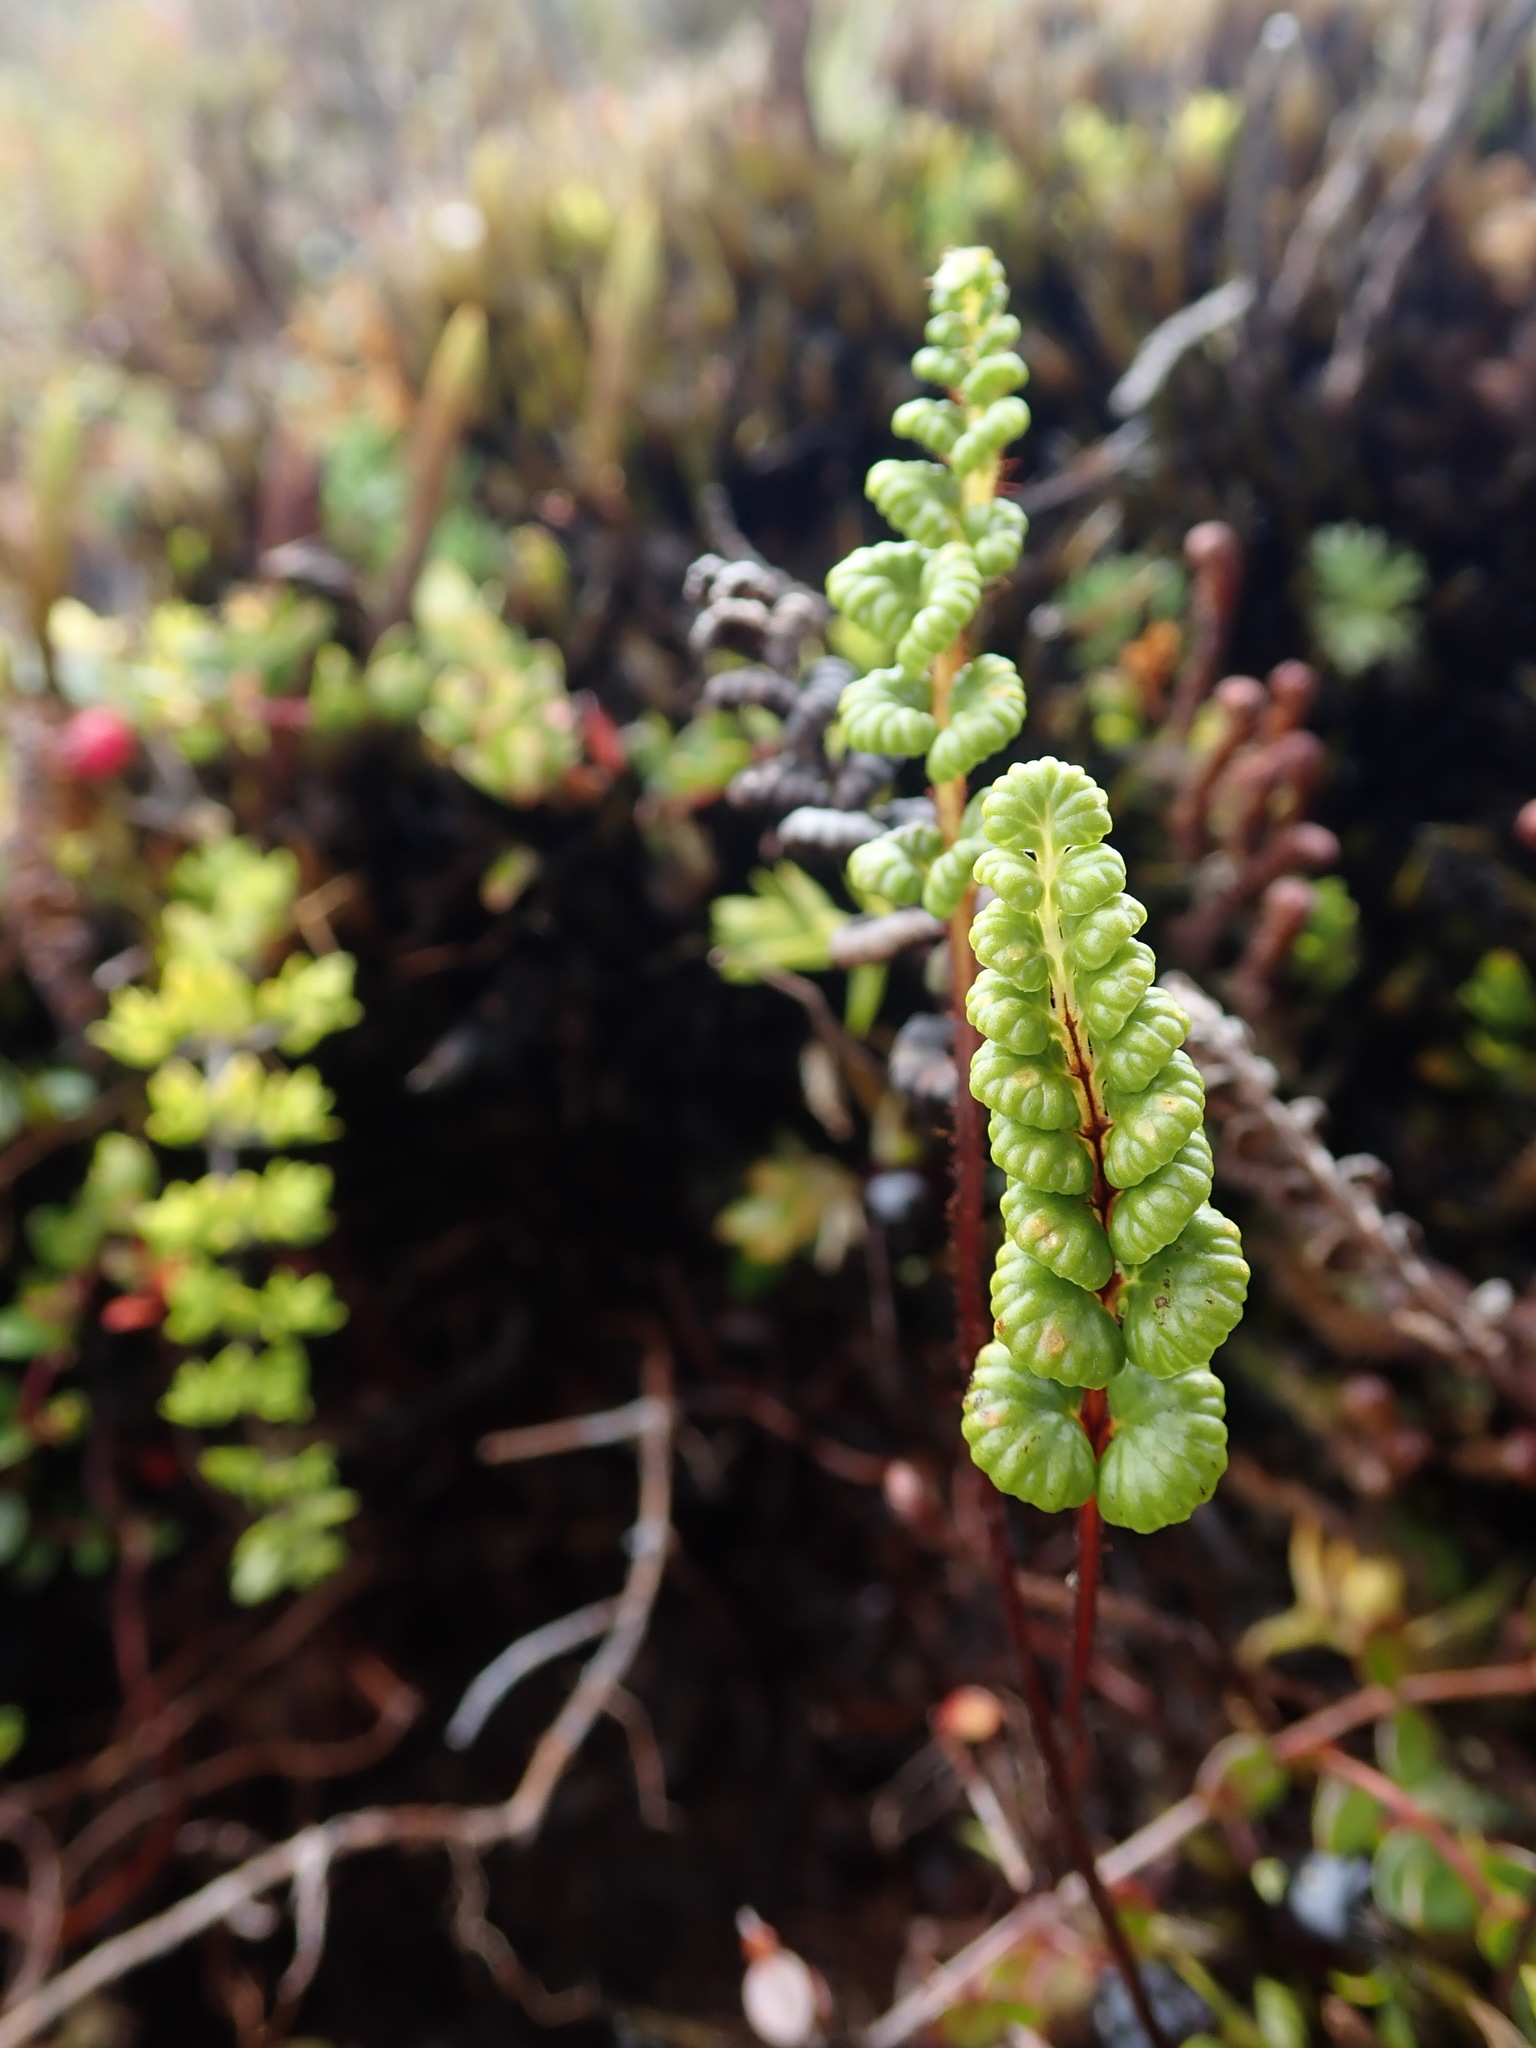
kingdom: Plantae
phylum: Tracheophyta
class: Polypodiopsida
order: Polypodiales
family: Pteridaceae
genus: Jamesonia
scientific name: Jamesonia longipetiolata
